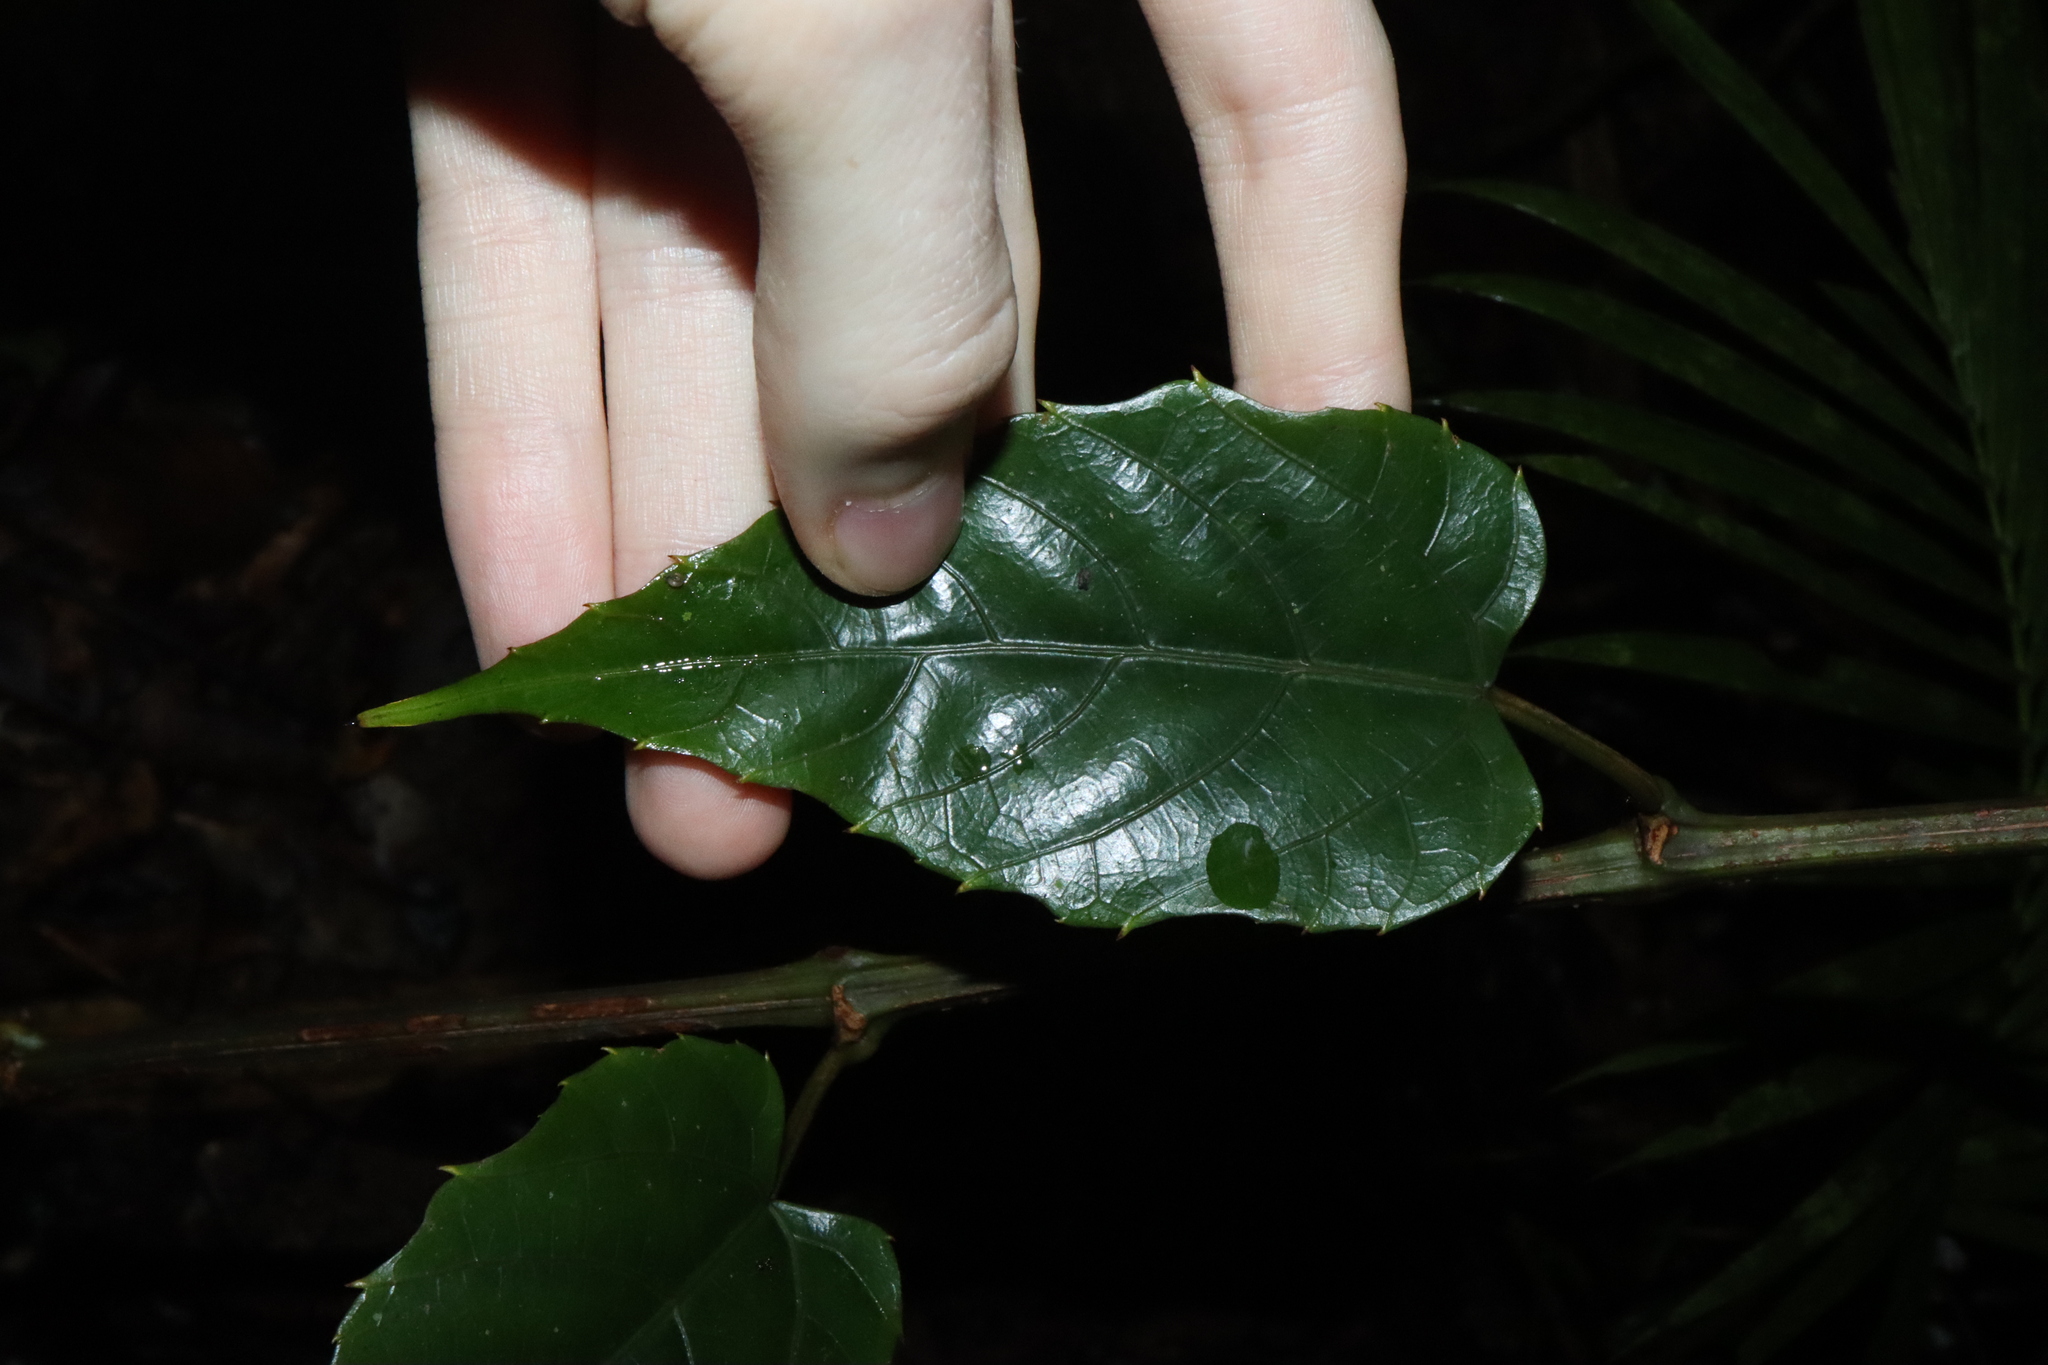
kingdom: Plantae
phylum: Tracheophyta
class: Magnoliopsida
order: Vitales
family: Vitaceae
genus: Cissus
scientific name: Cissus vinosa
